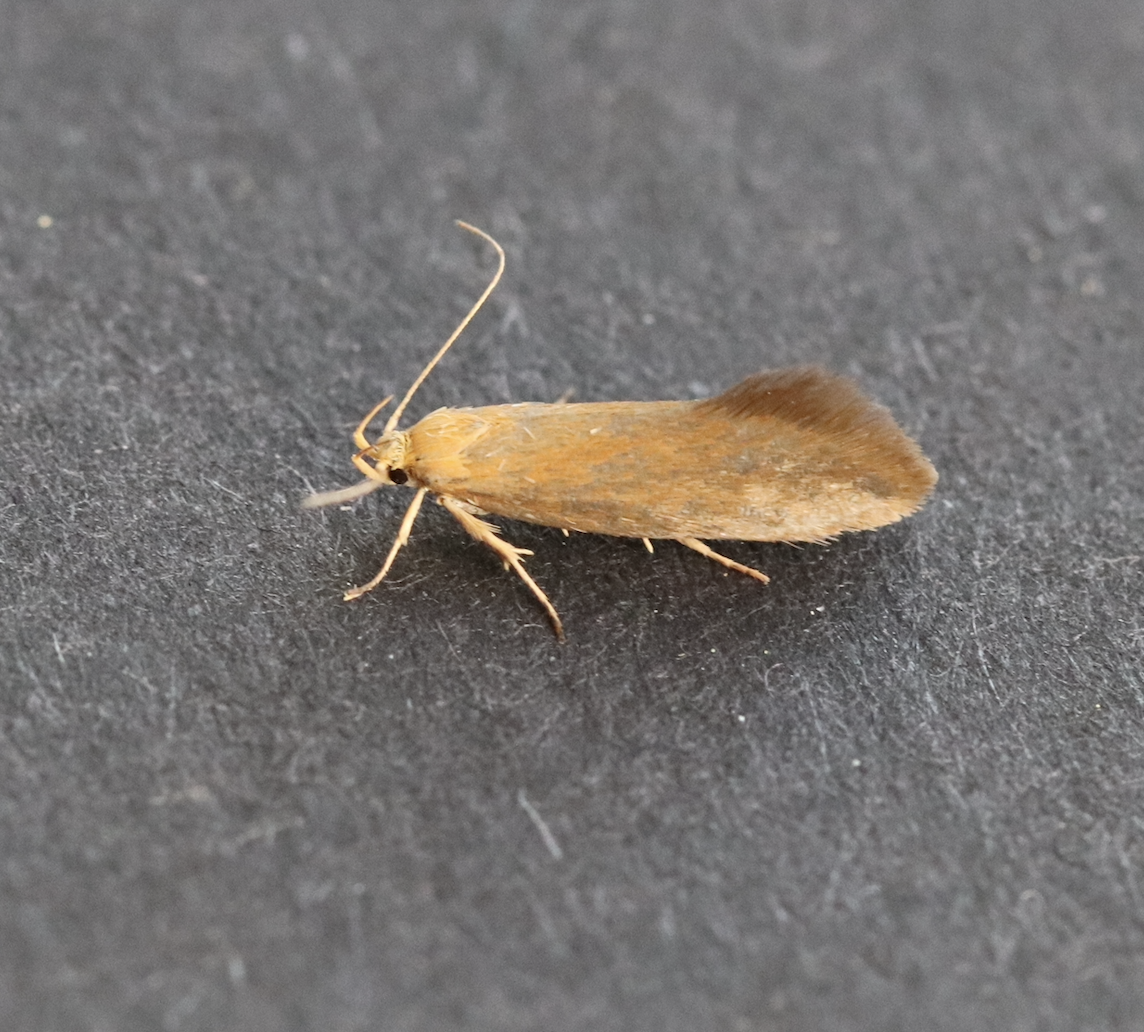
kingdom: Animalia
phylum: Arthropoda
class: Insecta
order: Lepidoptera
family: Oecophoridae
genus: Borkhausenia
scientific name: Borkhausenia Crassa tinctella
